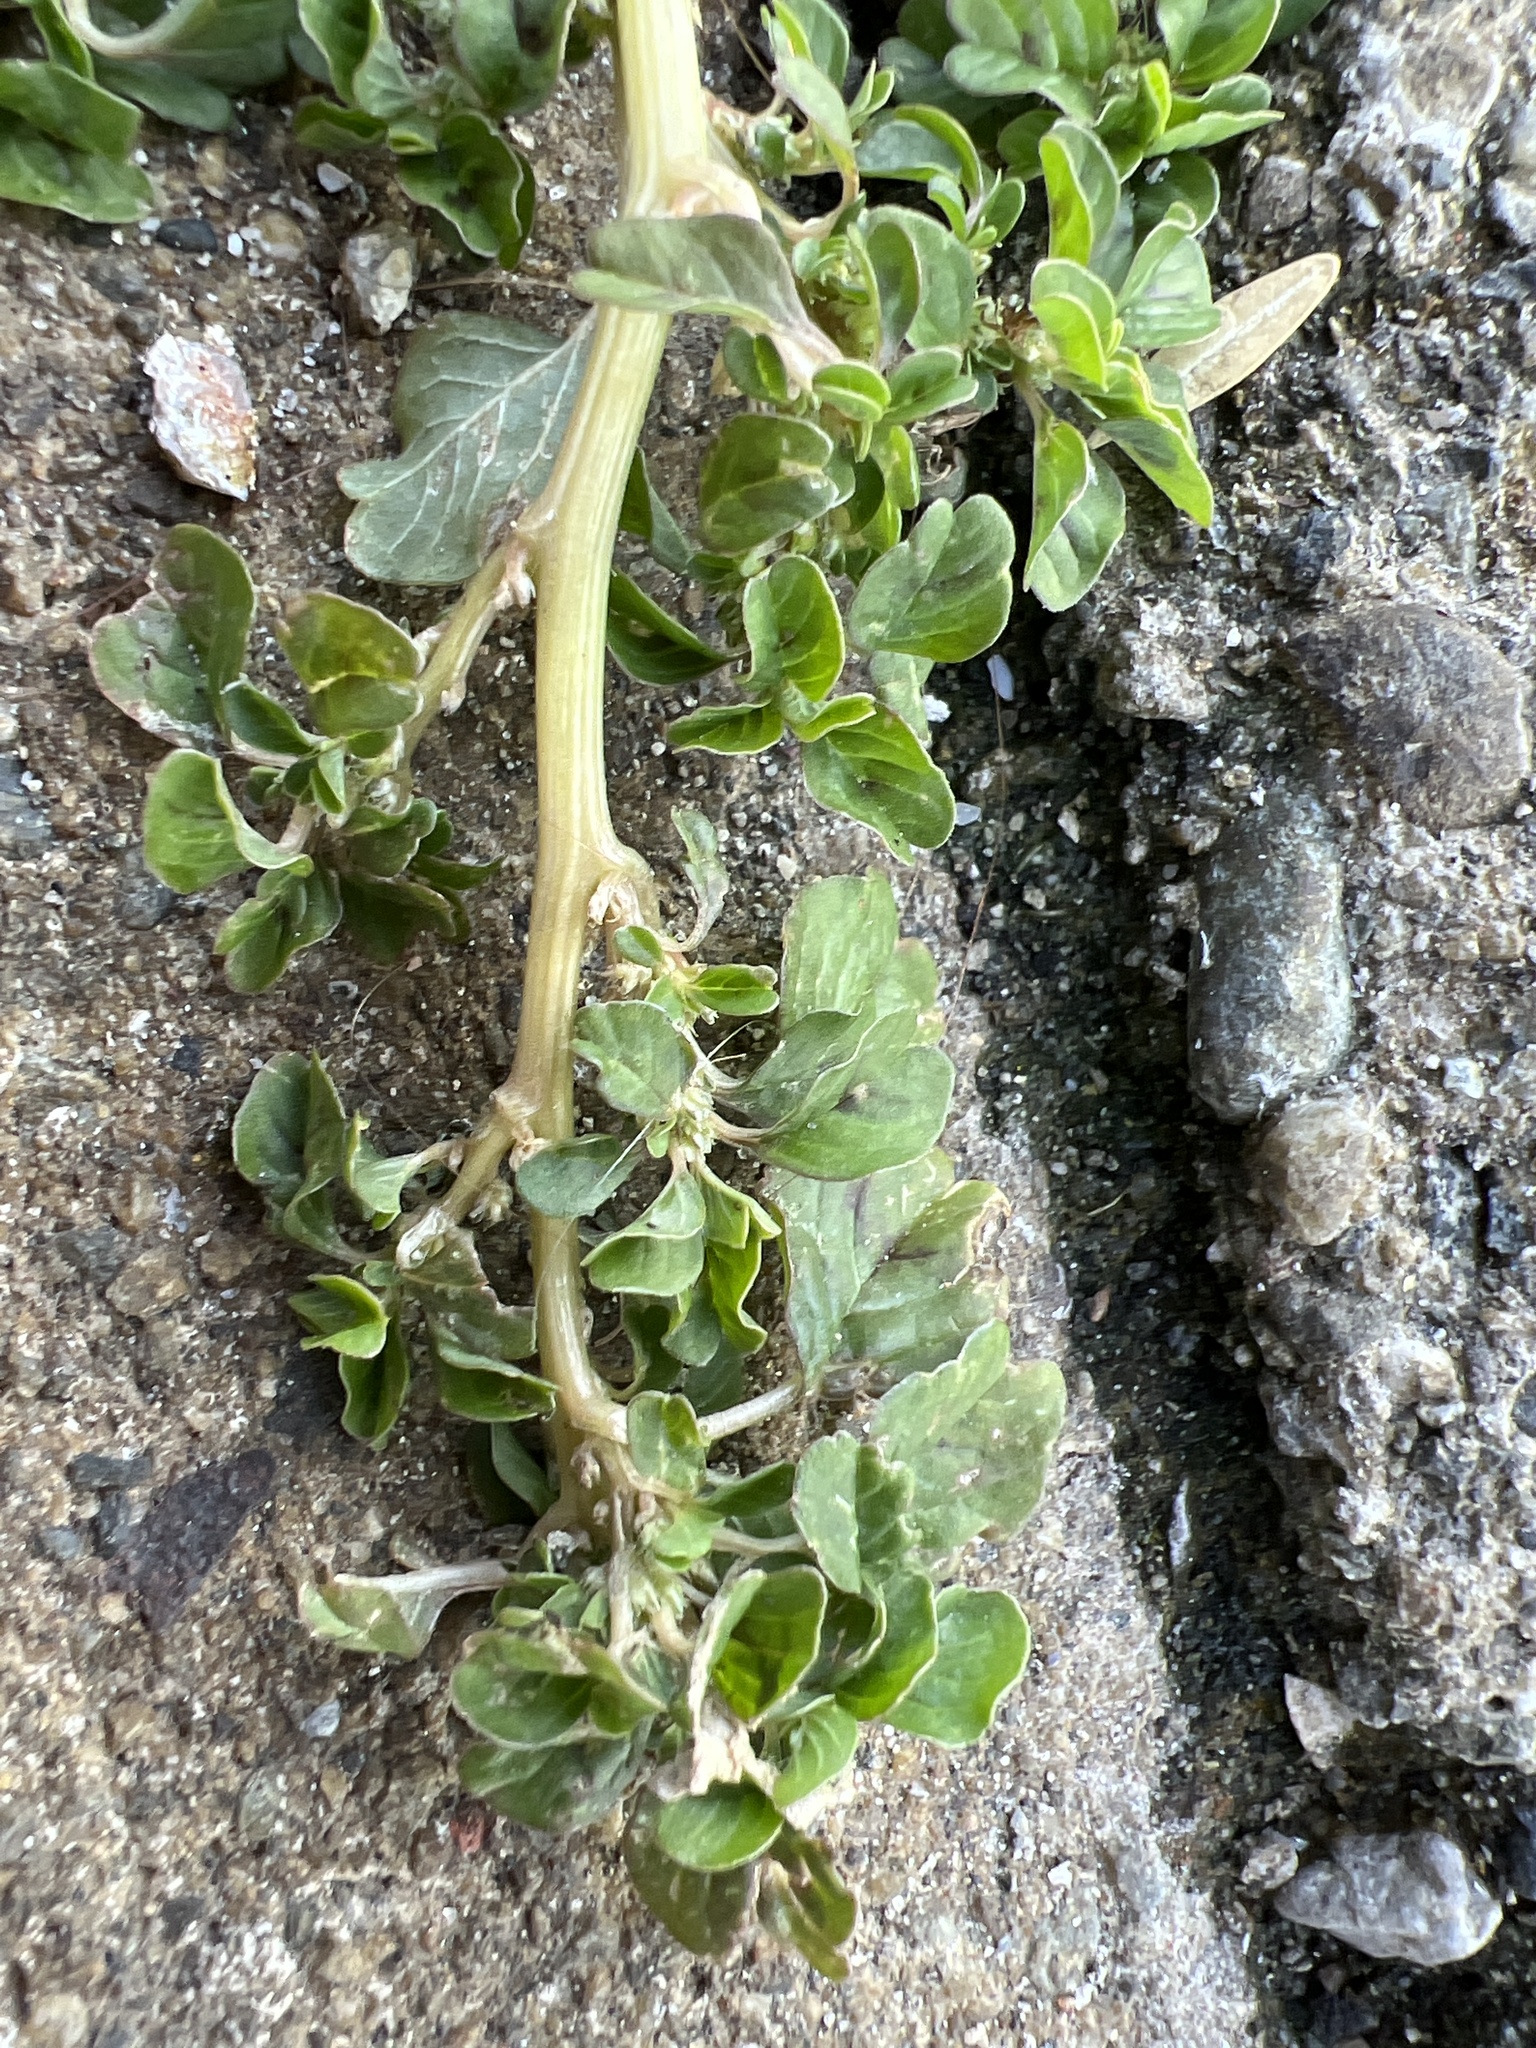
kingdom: Plantae
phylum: Tracheophyta
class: Magnoliopsida
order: Caryophyllales
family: Amaranthaceae
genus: Amaranthus
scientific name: Amaranthus blitum
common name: Purple amaranth
